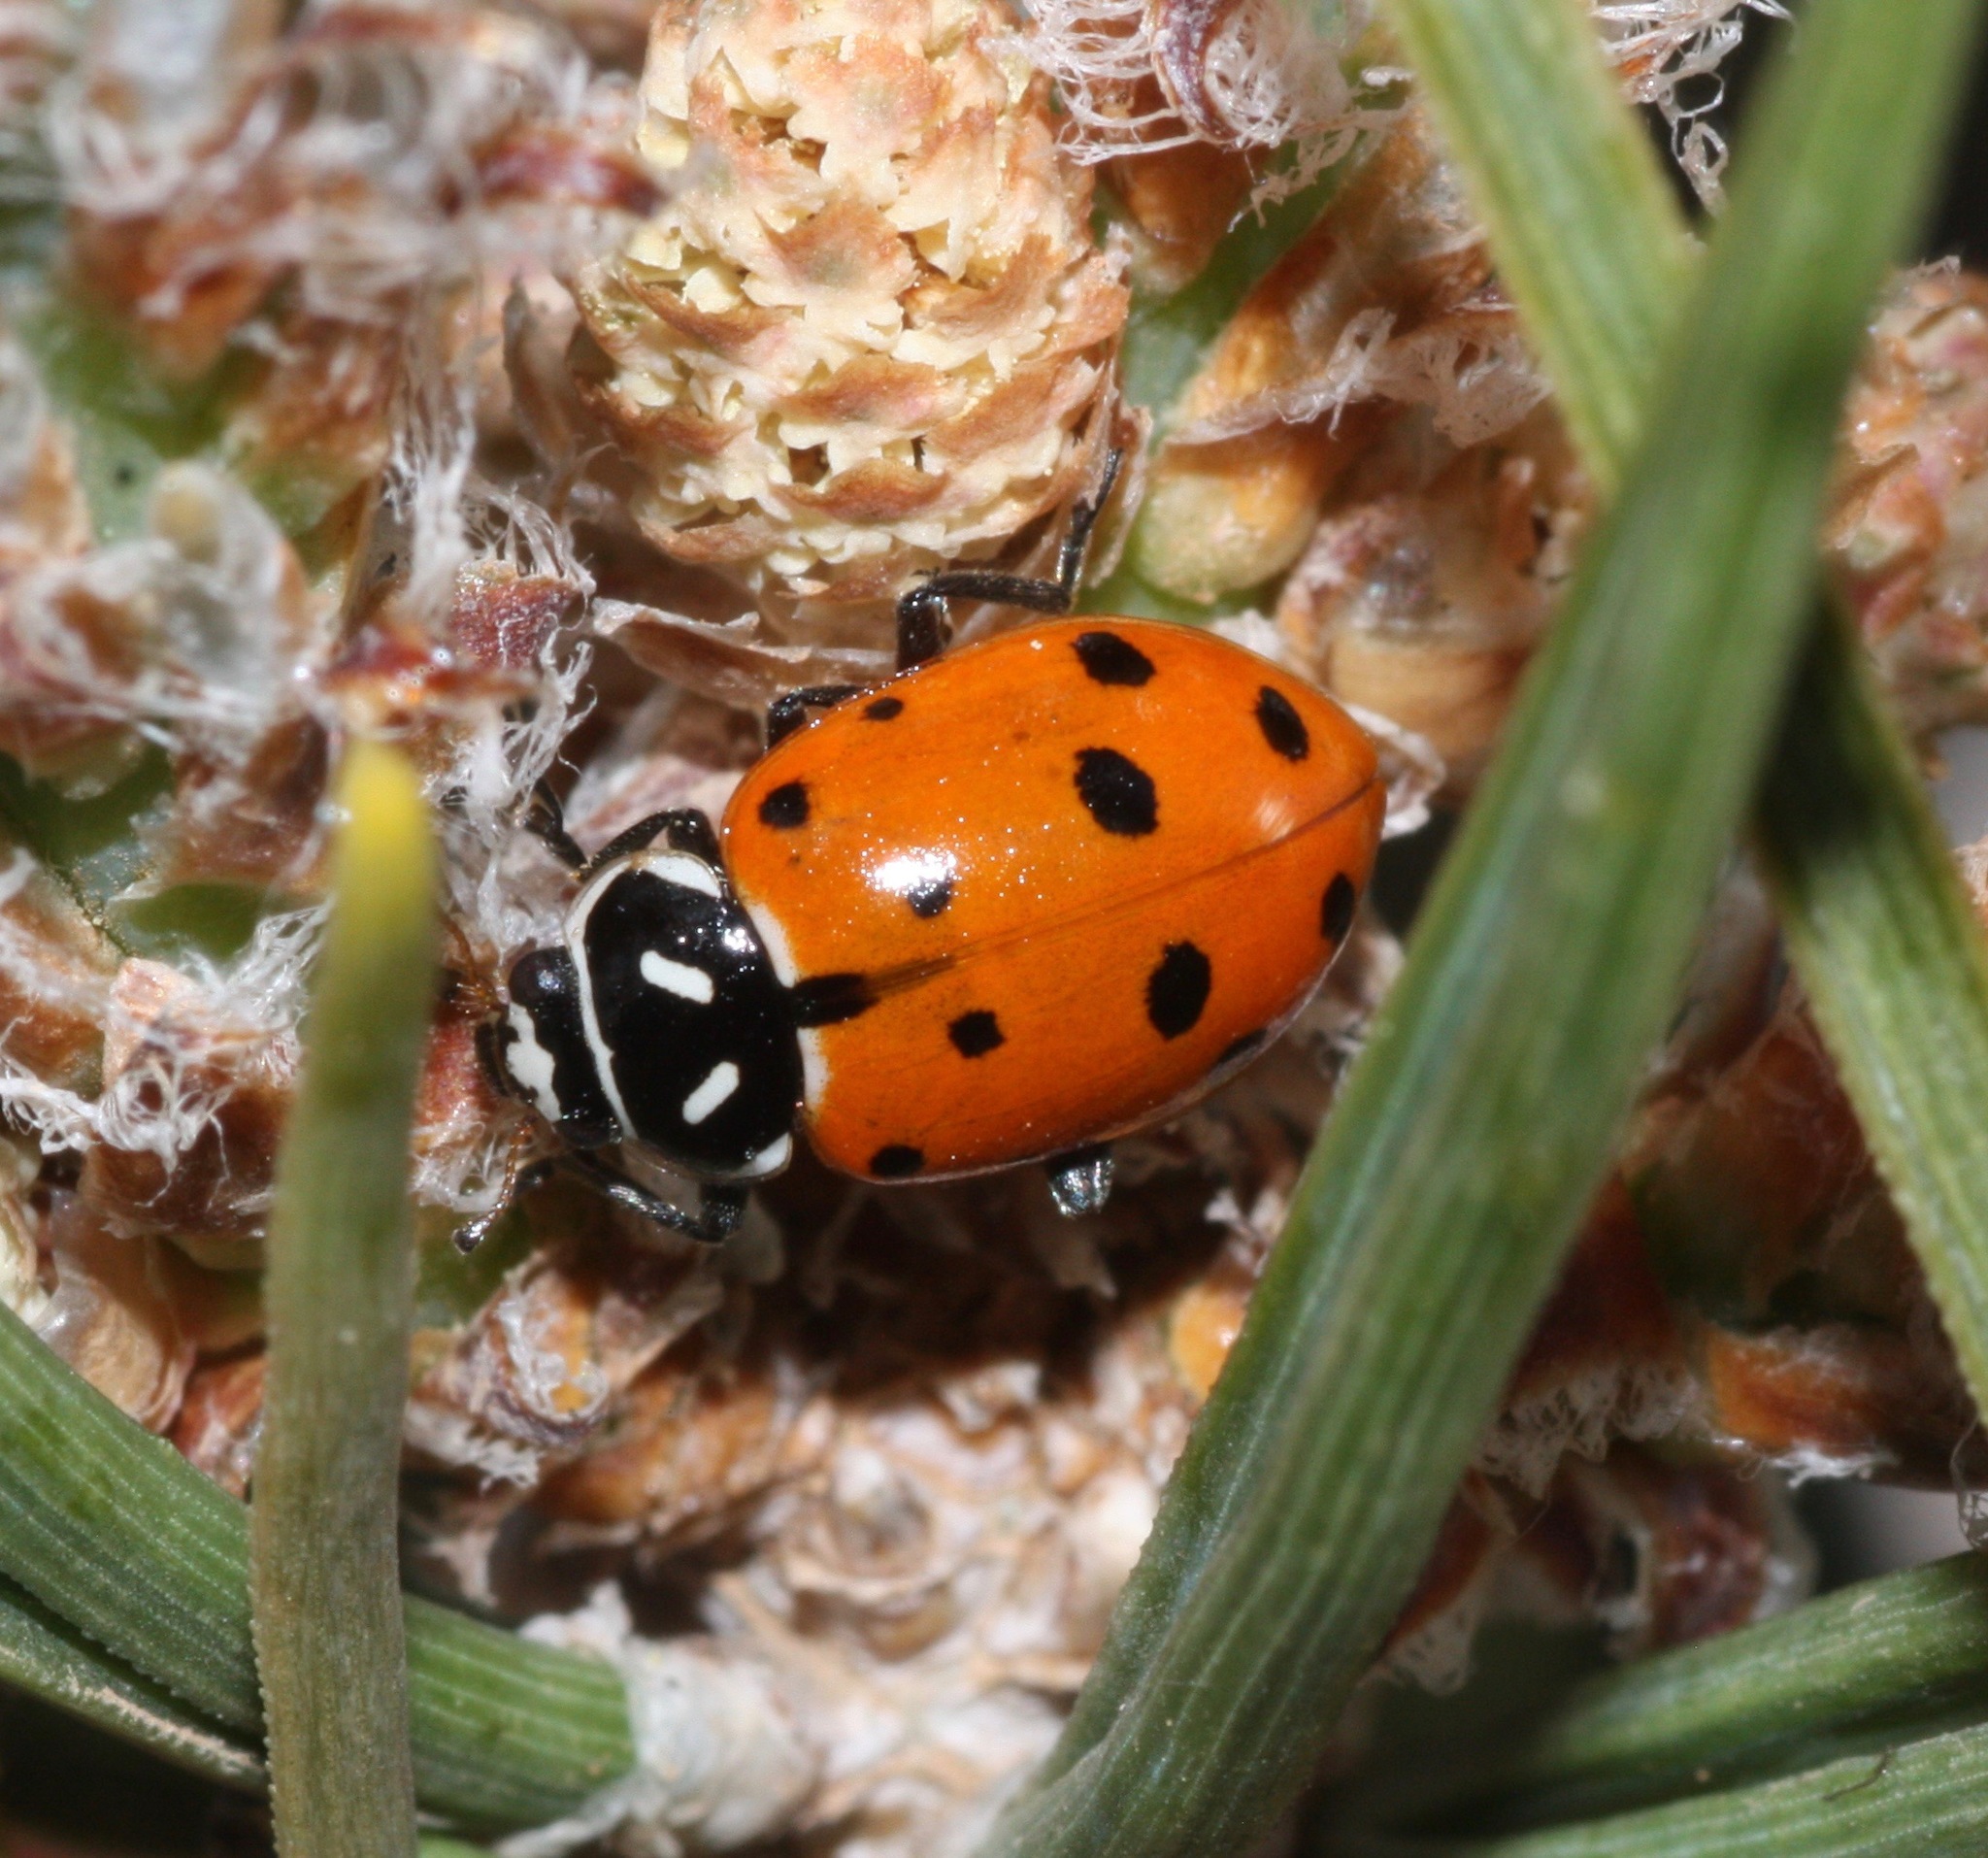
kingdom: Animalia
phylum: Arthropoda
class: Insecta
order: Coleoptera
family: Coccinellidae
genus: Hippodamia
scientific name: Hippodamia convergens
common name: Convergent lady beetle
